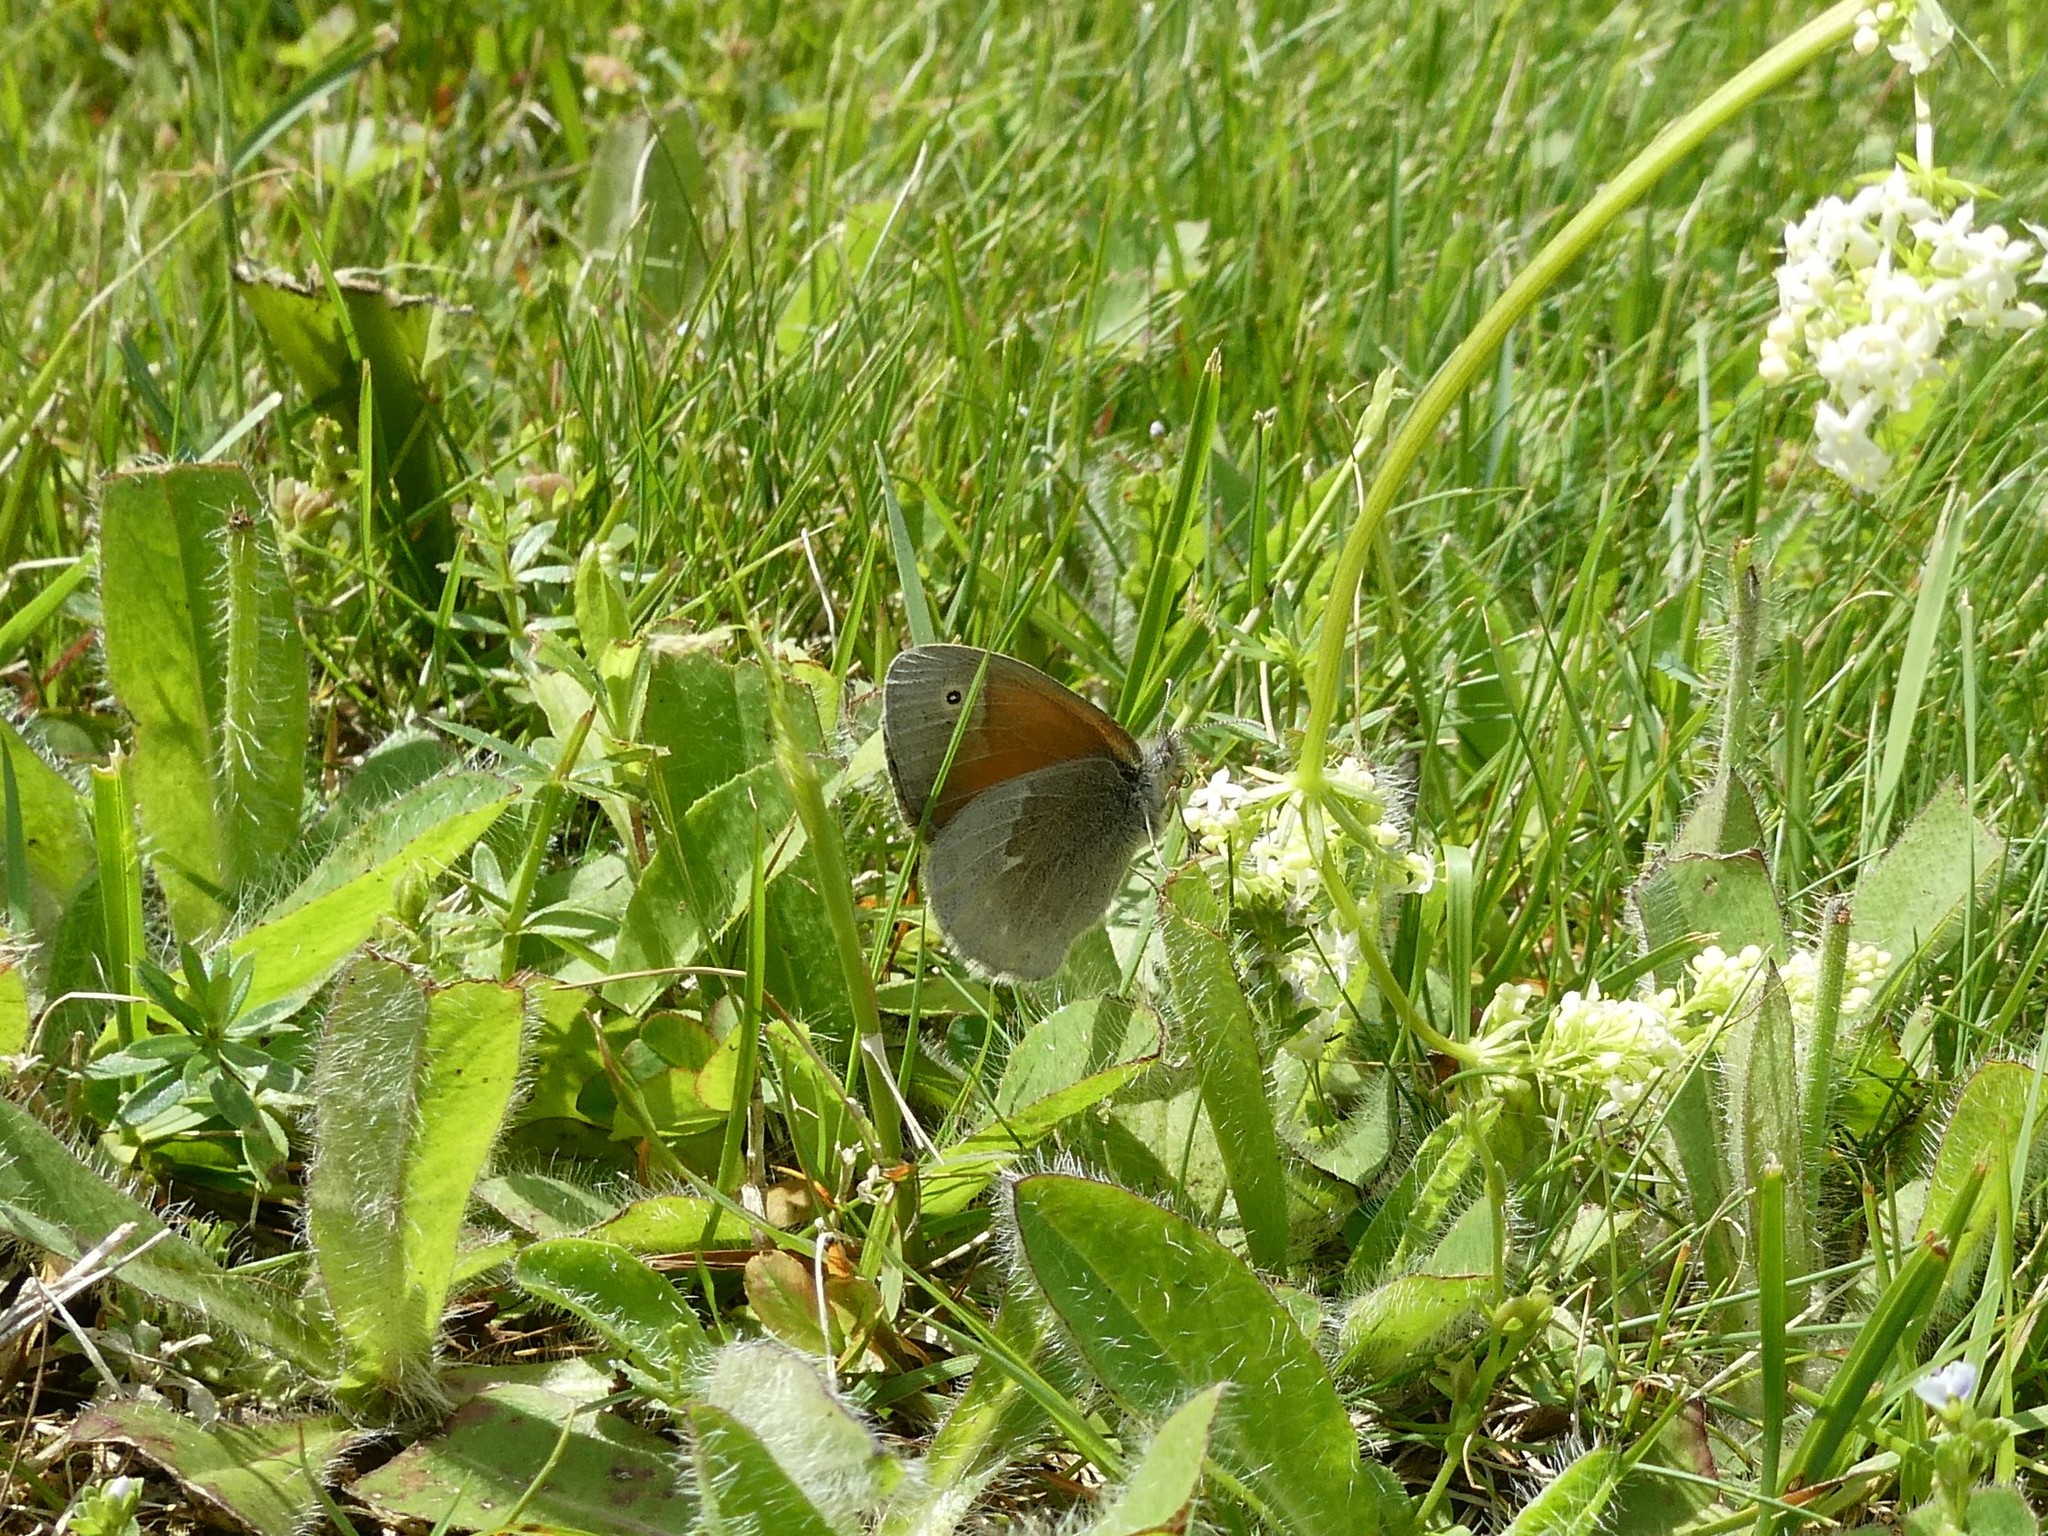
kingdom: Animalia
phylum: Arthropoda
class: Insecta
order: Lepidoptera
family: Nymphalidae
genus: Coenonympha
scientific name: Coenonympha california
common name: Common ringlet
